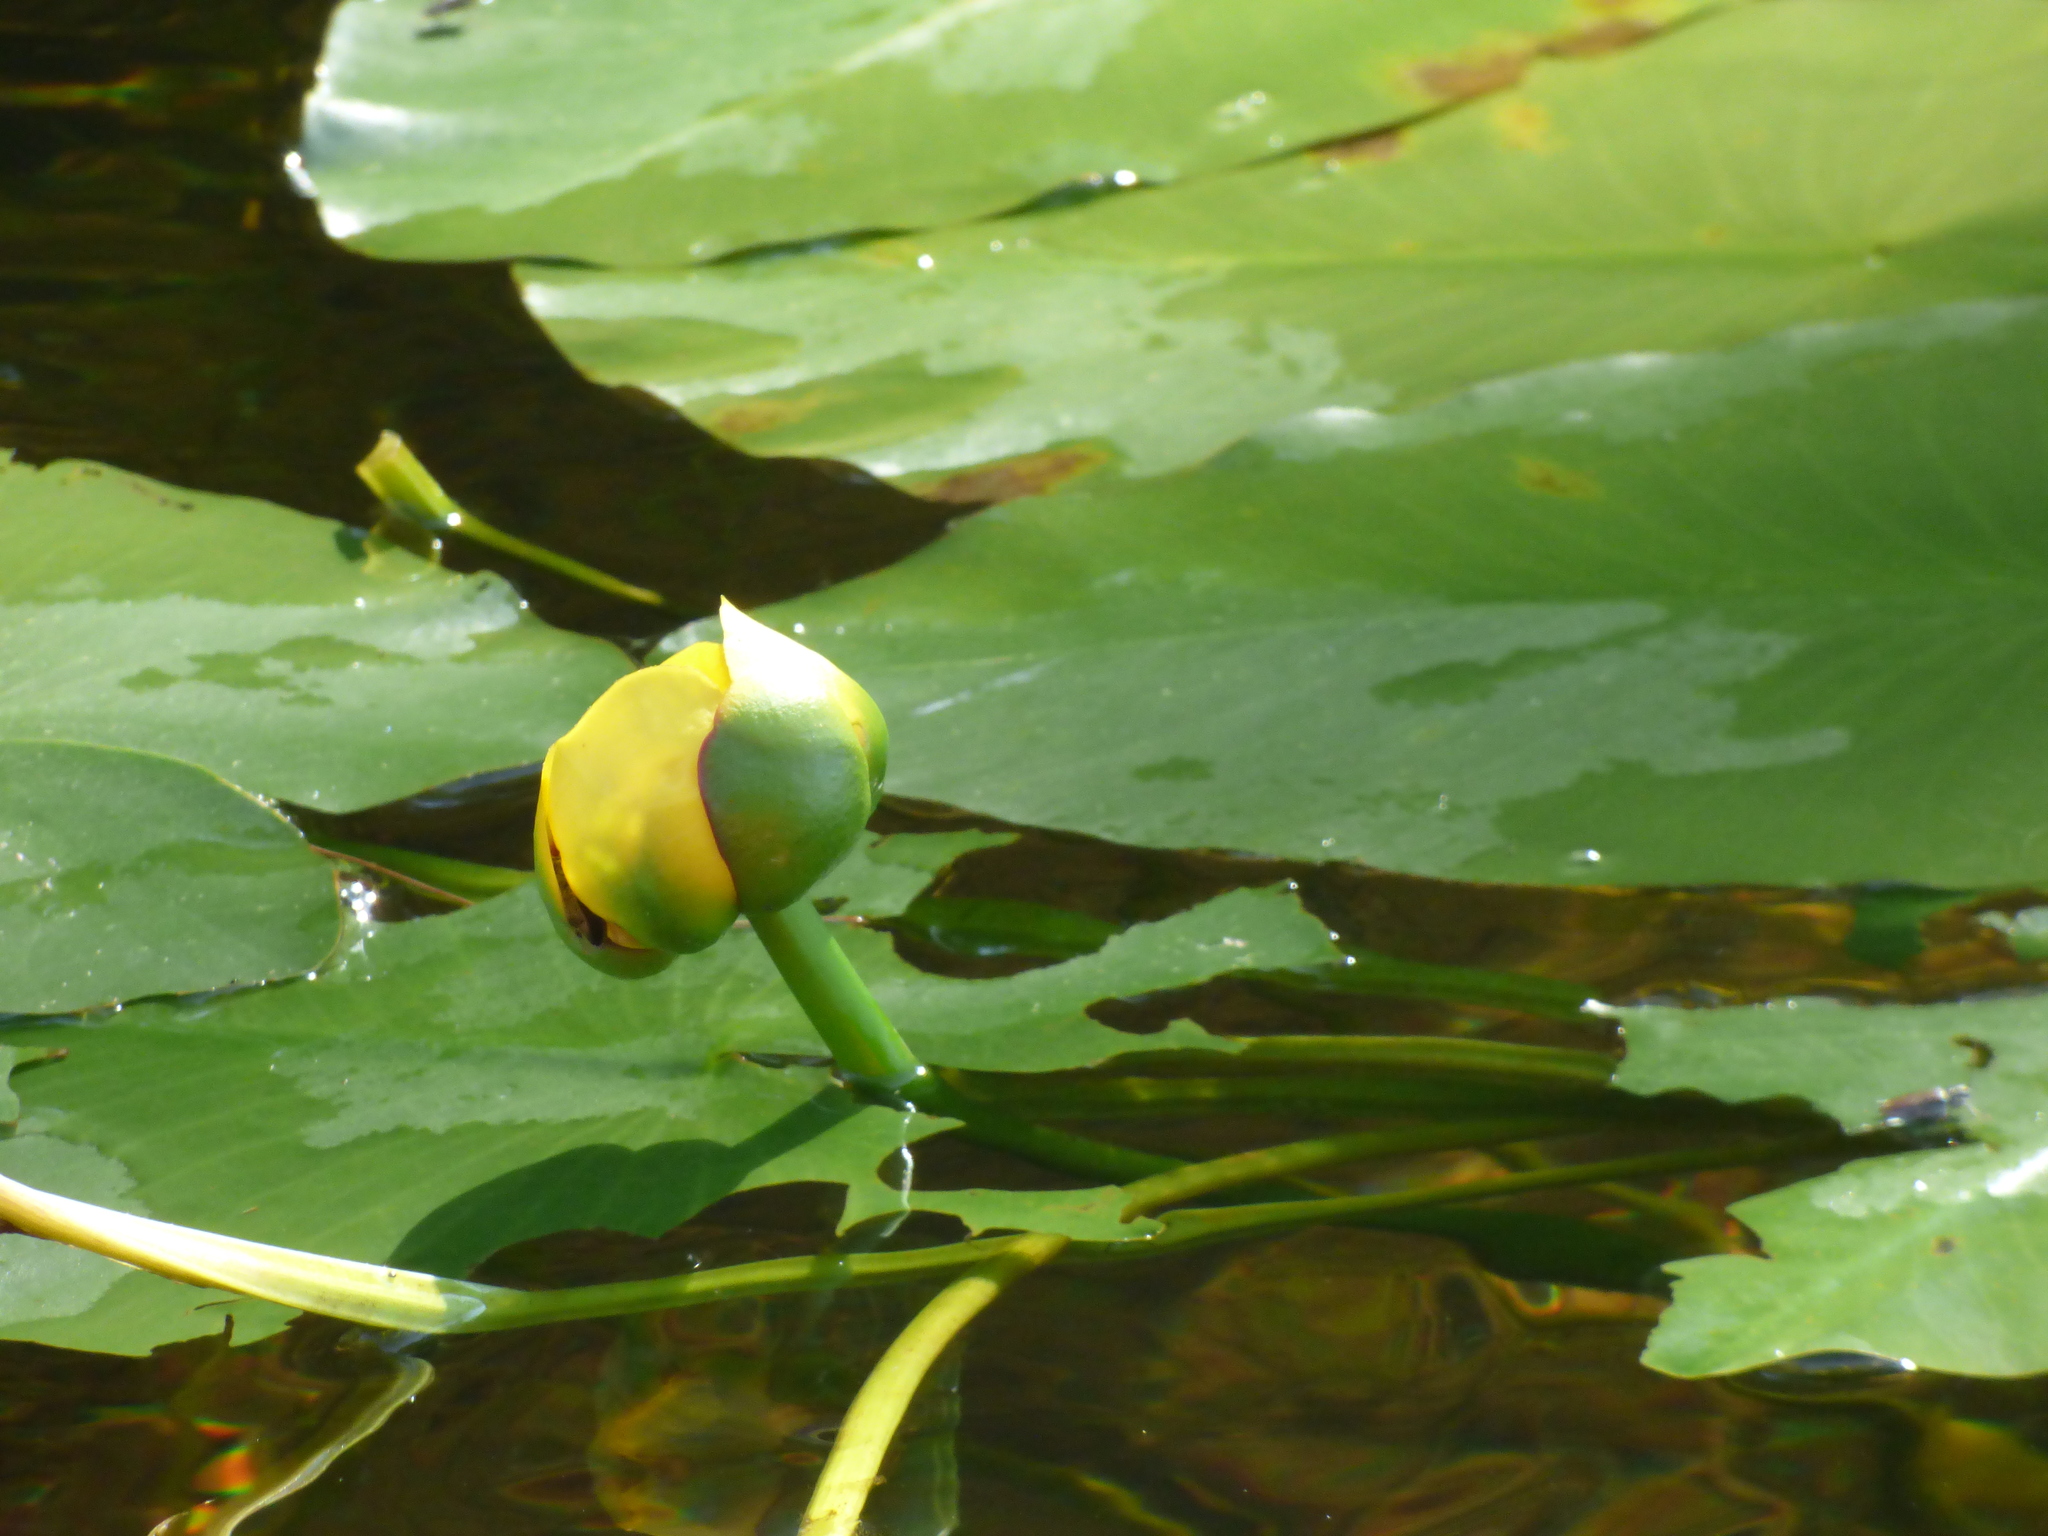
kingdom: Plantae
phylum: Tracheophyta
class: Magnoliopsida
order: Nymphaeales
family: Nymphaeaceae
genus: Nuphar
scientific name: Nuphar variegata
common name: Beaver-root
